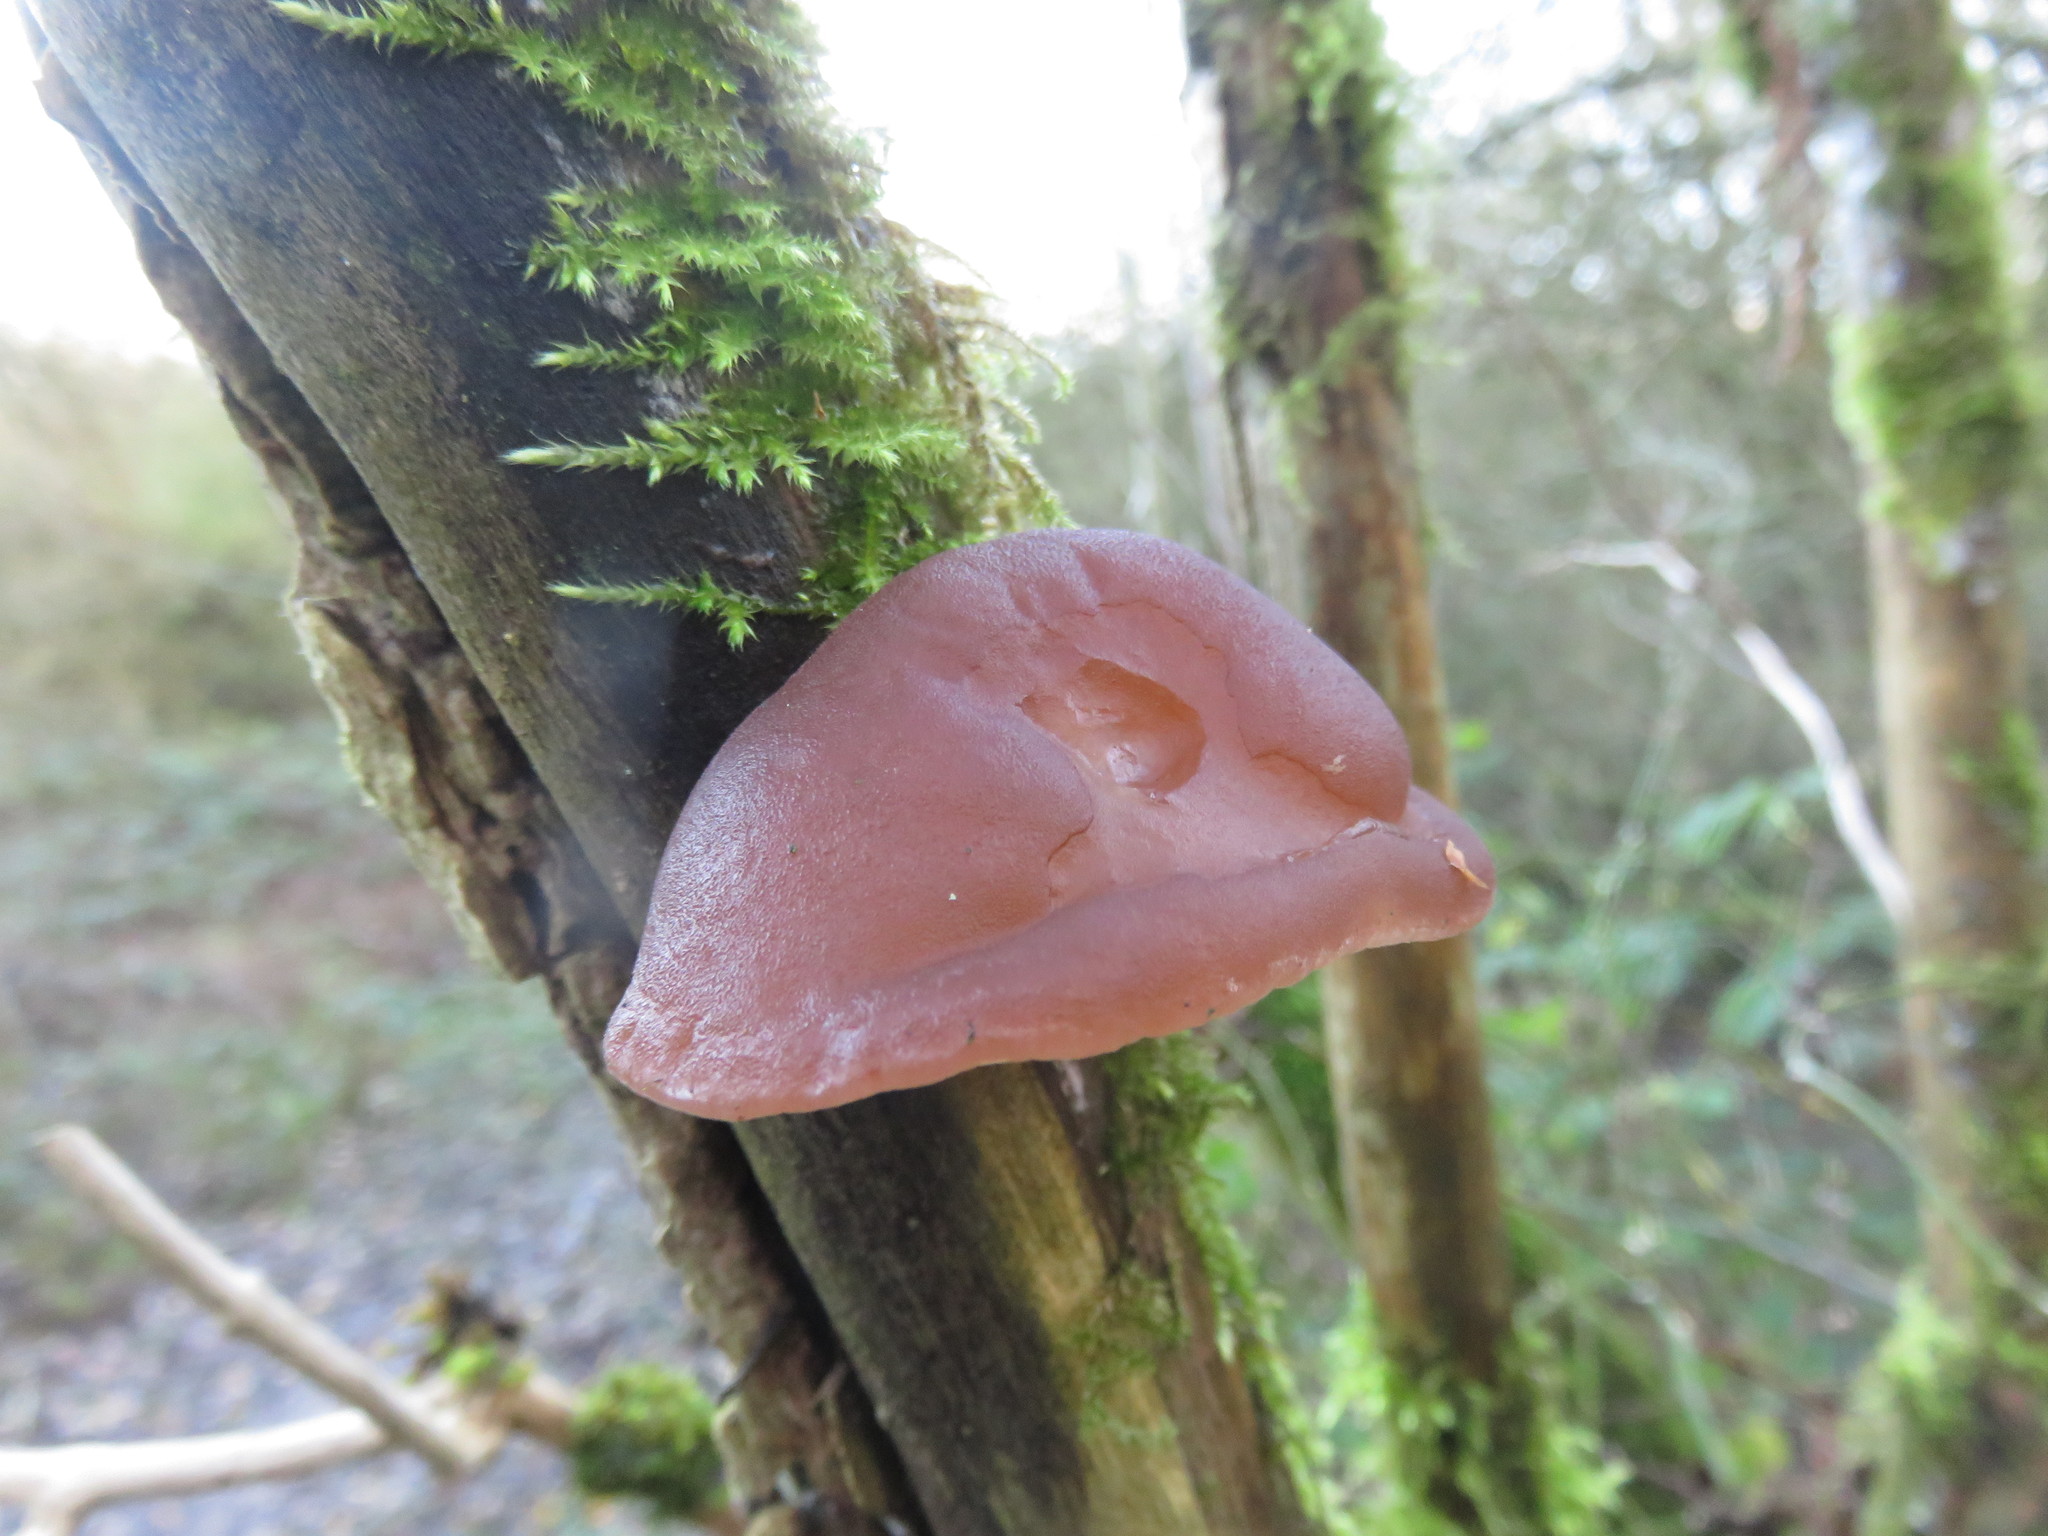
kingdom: Fungi
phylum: Basidiomycota
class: Agaricomycetes
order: Auriculariales
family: Auriculariaceae
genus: Auricularia
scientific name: Auricularia auricula-judae
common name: Jelly ear
